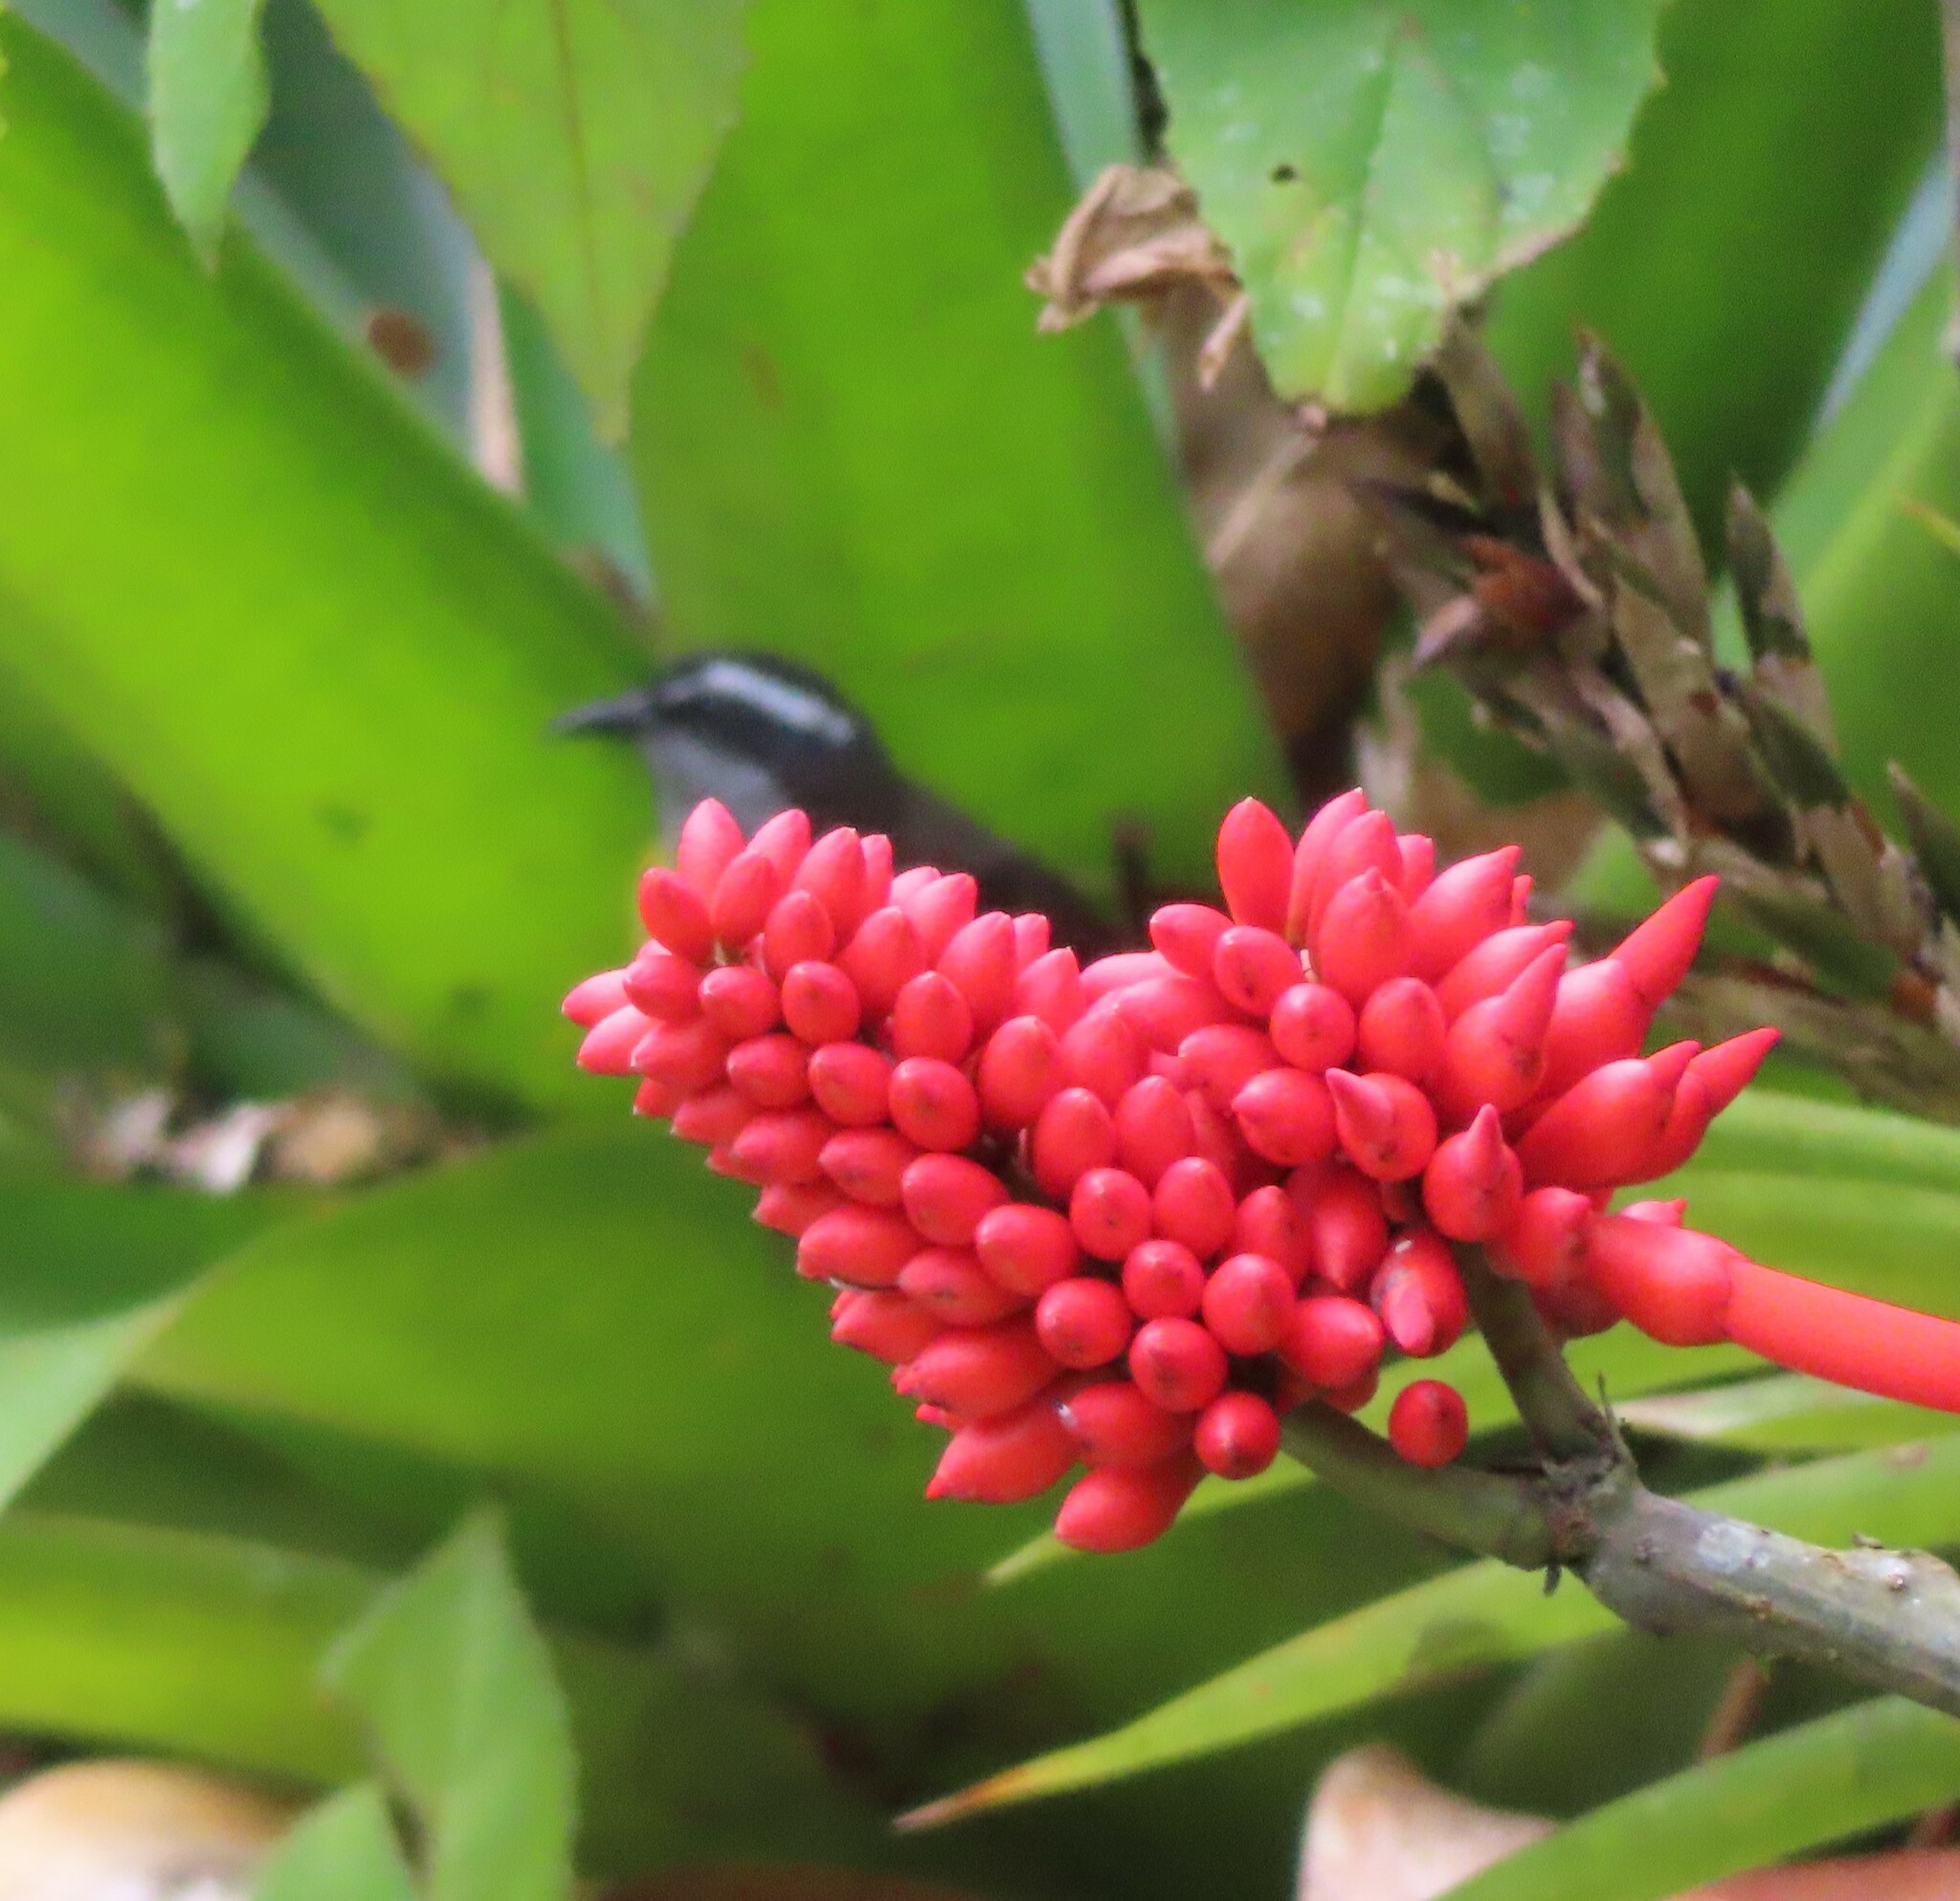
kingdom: Animalia
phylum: Chordata
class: Aves
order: Passeriformes
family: Thraupidae
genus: Coereba
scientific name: Coereba flaveola
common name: Bananaquit
